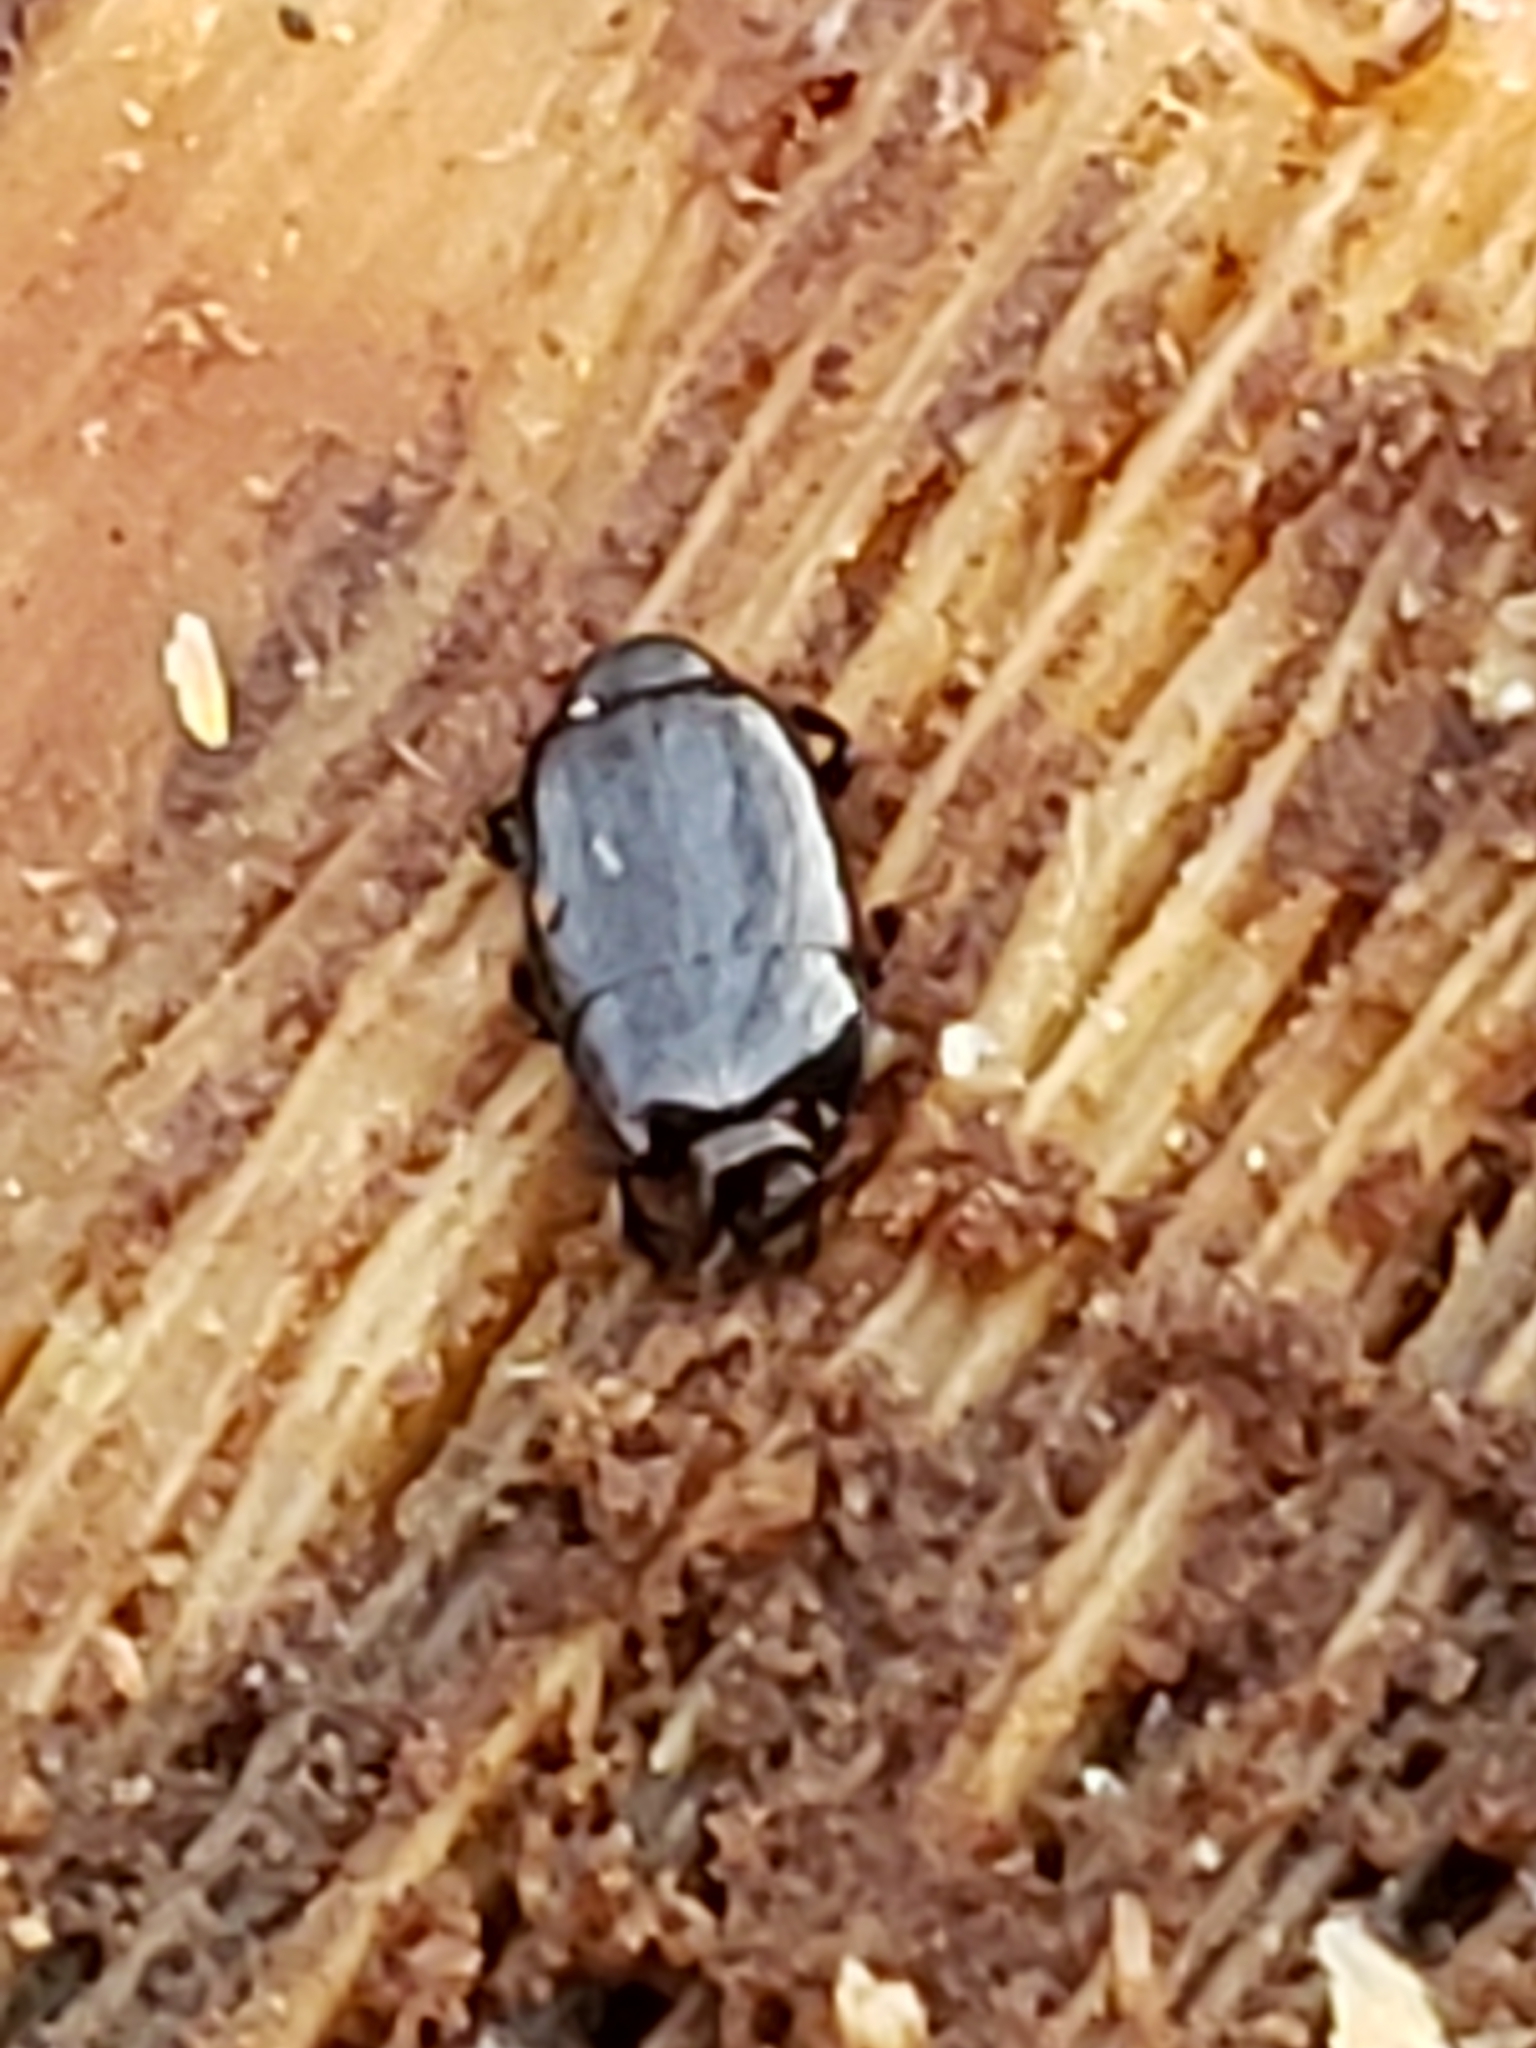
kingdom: Animalia
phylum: Arthropoda
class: Insecta
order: Coleoptera
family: Histeridae
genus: Platylomalus
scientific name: Platylomalus aequalis
